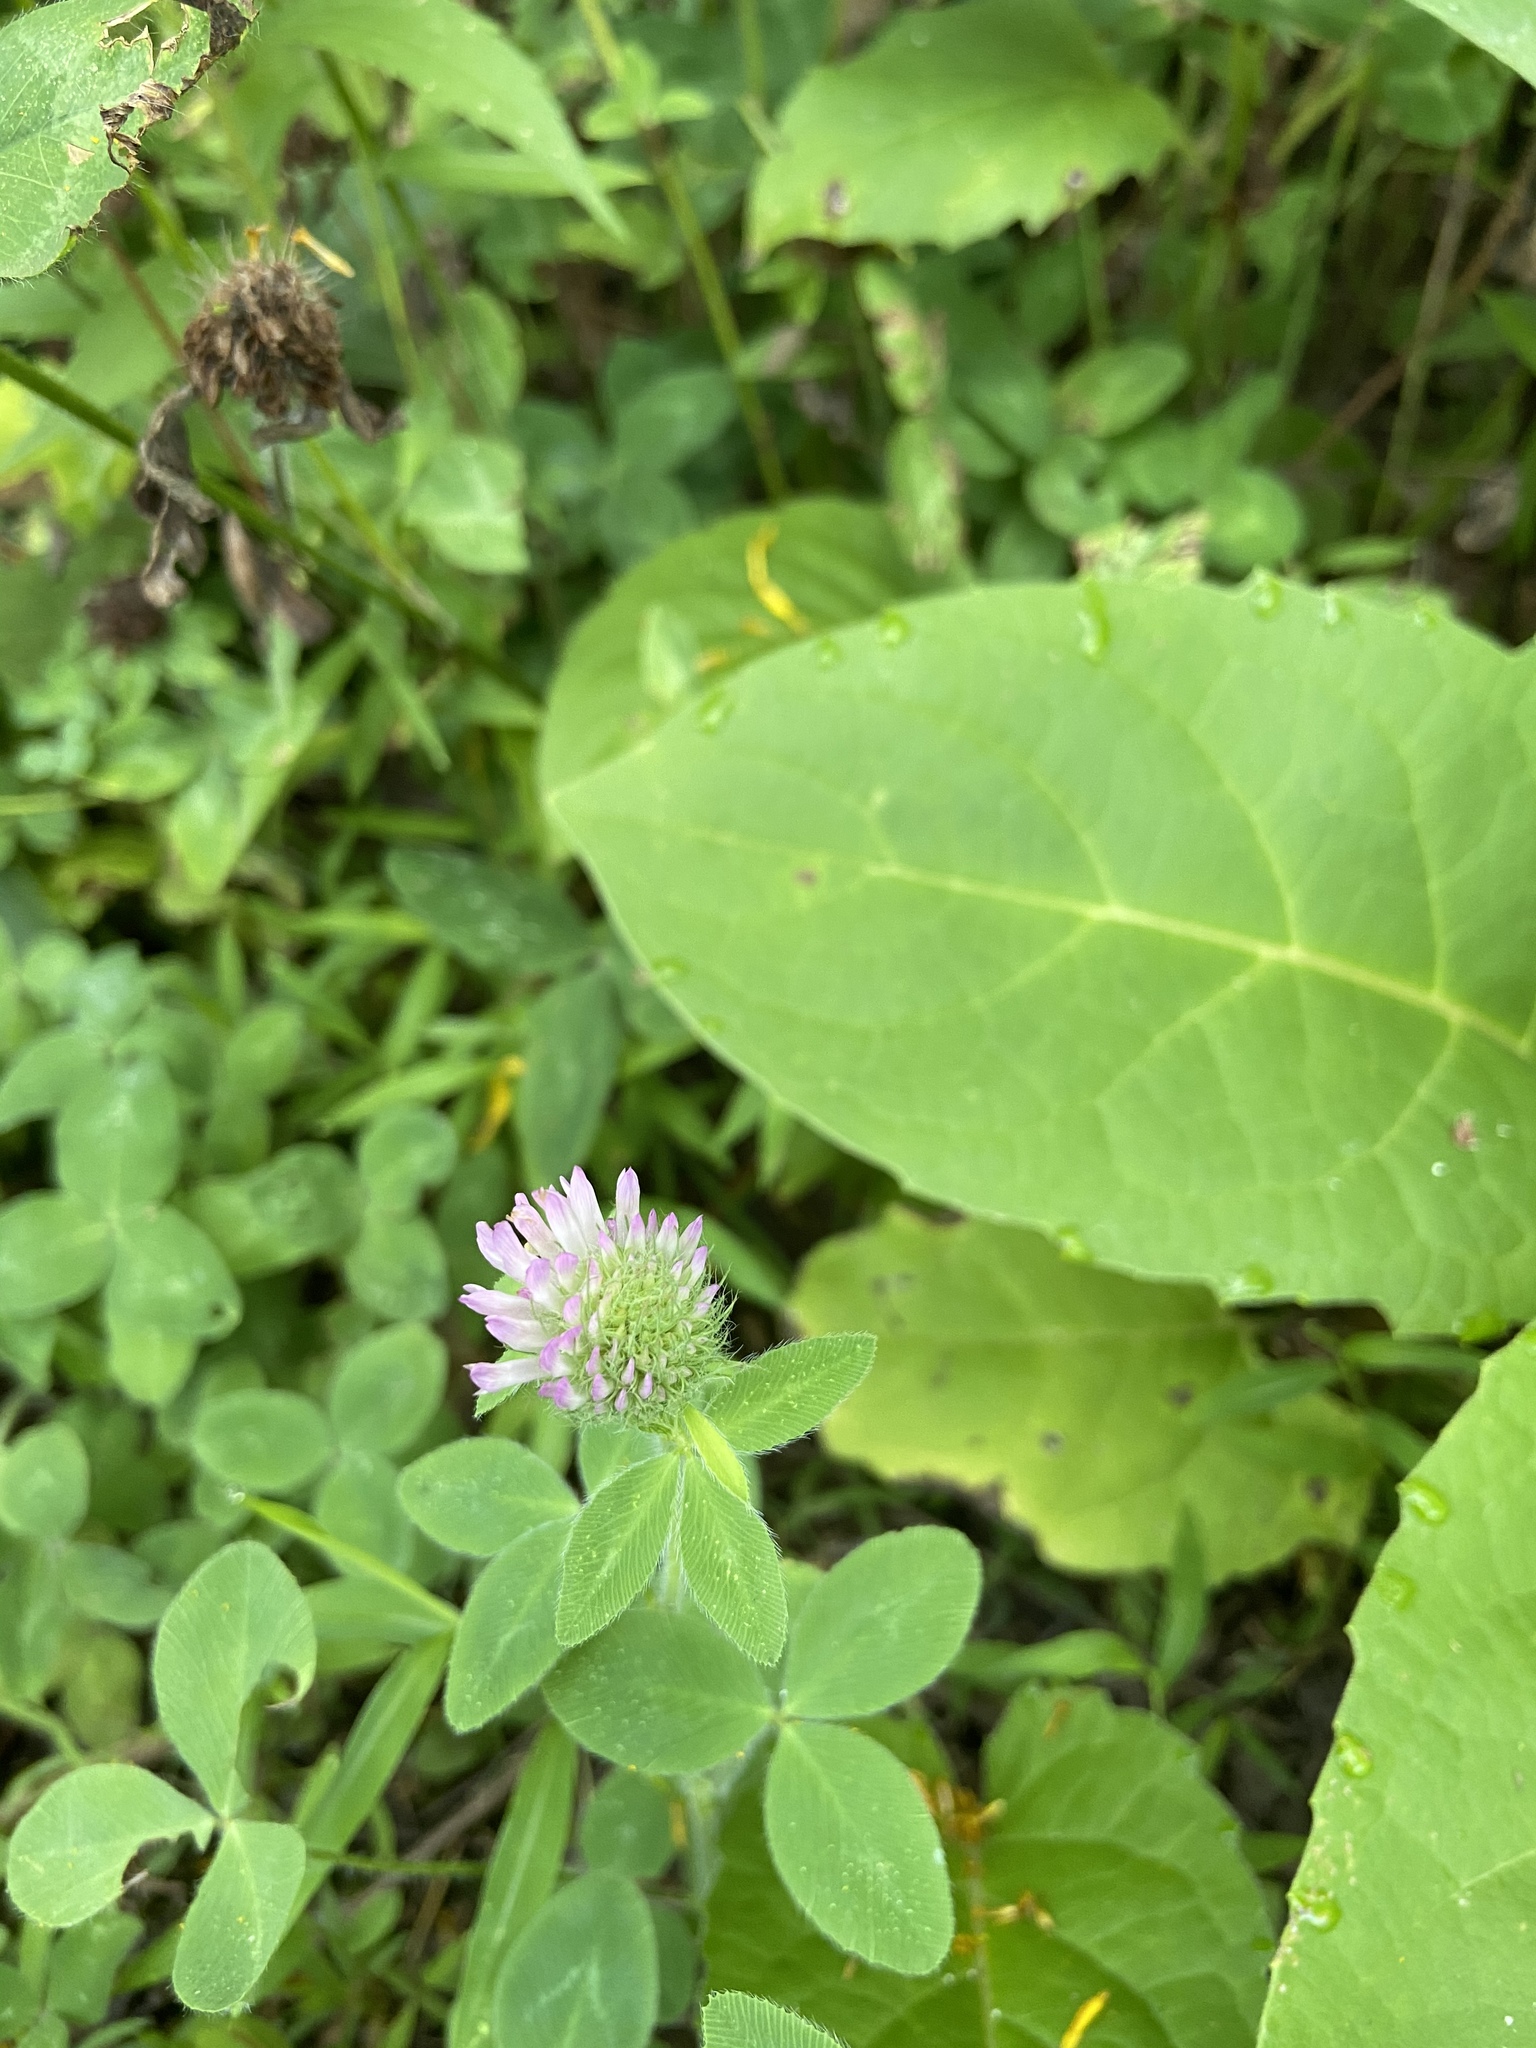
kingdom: Plantae
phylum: Tracheophyta
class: Magnoliopsida
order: Fabales
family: Fabaceae
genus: Trifolium
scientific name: Trifolium pratense
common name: Red clover
